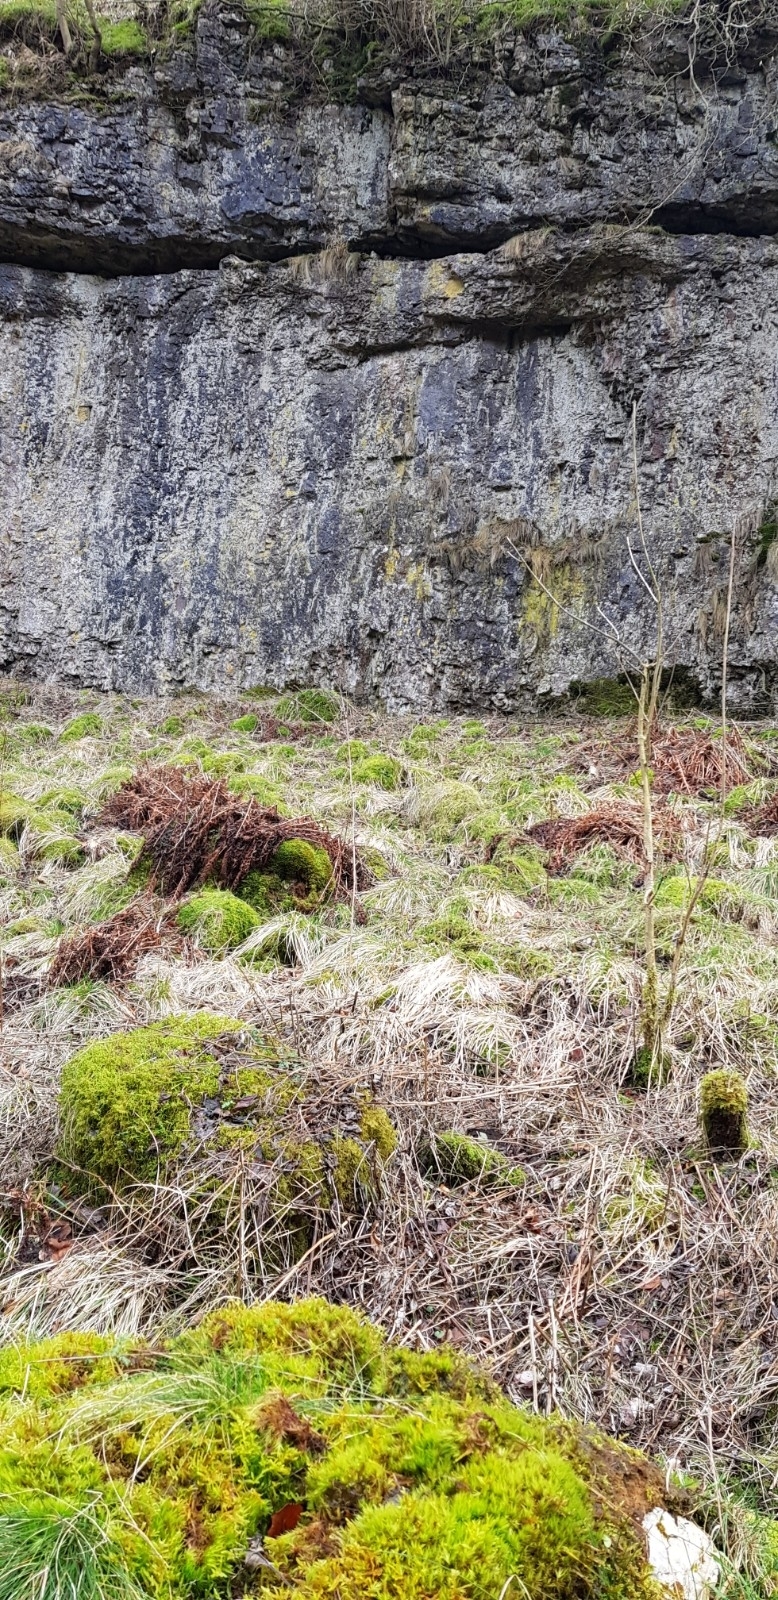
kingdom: Plantae
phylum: Bryophyta
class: Bryopsida
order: Hypnales
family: Brachytheciaceae
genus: Pseudoscleropodium
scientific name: Pseudoscleropodium purum
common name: Neat feather-moss
